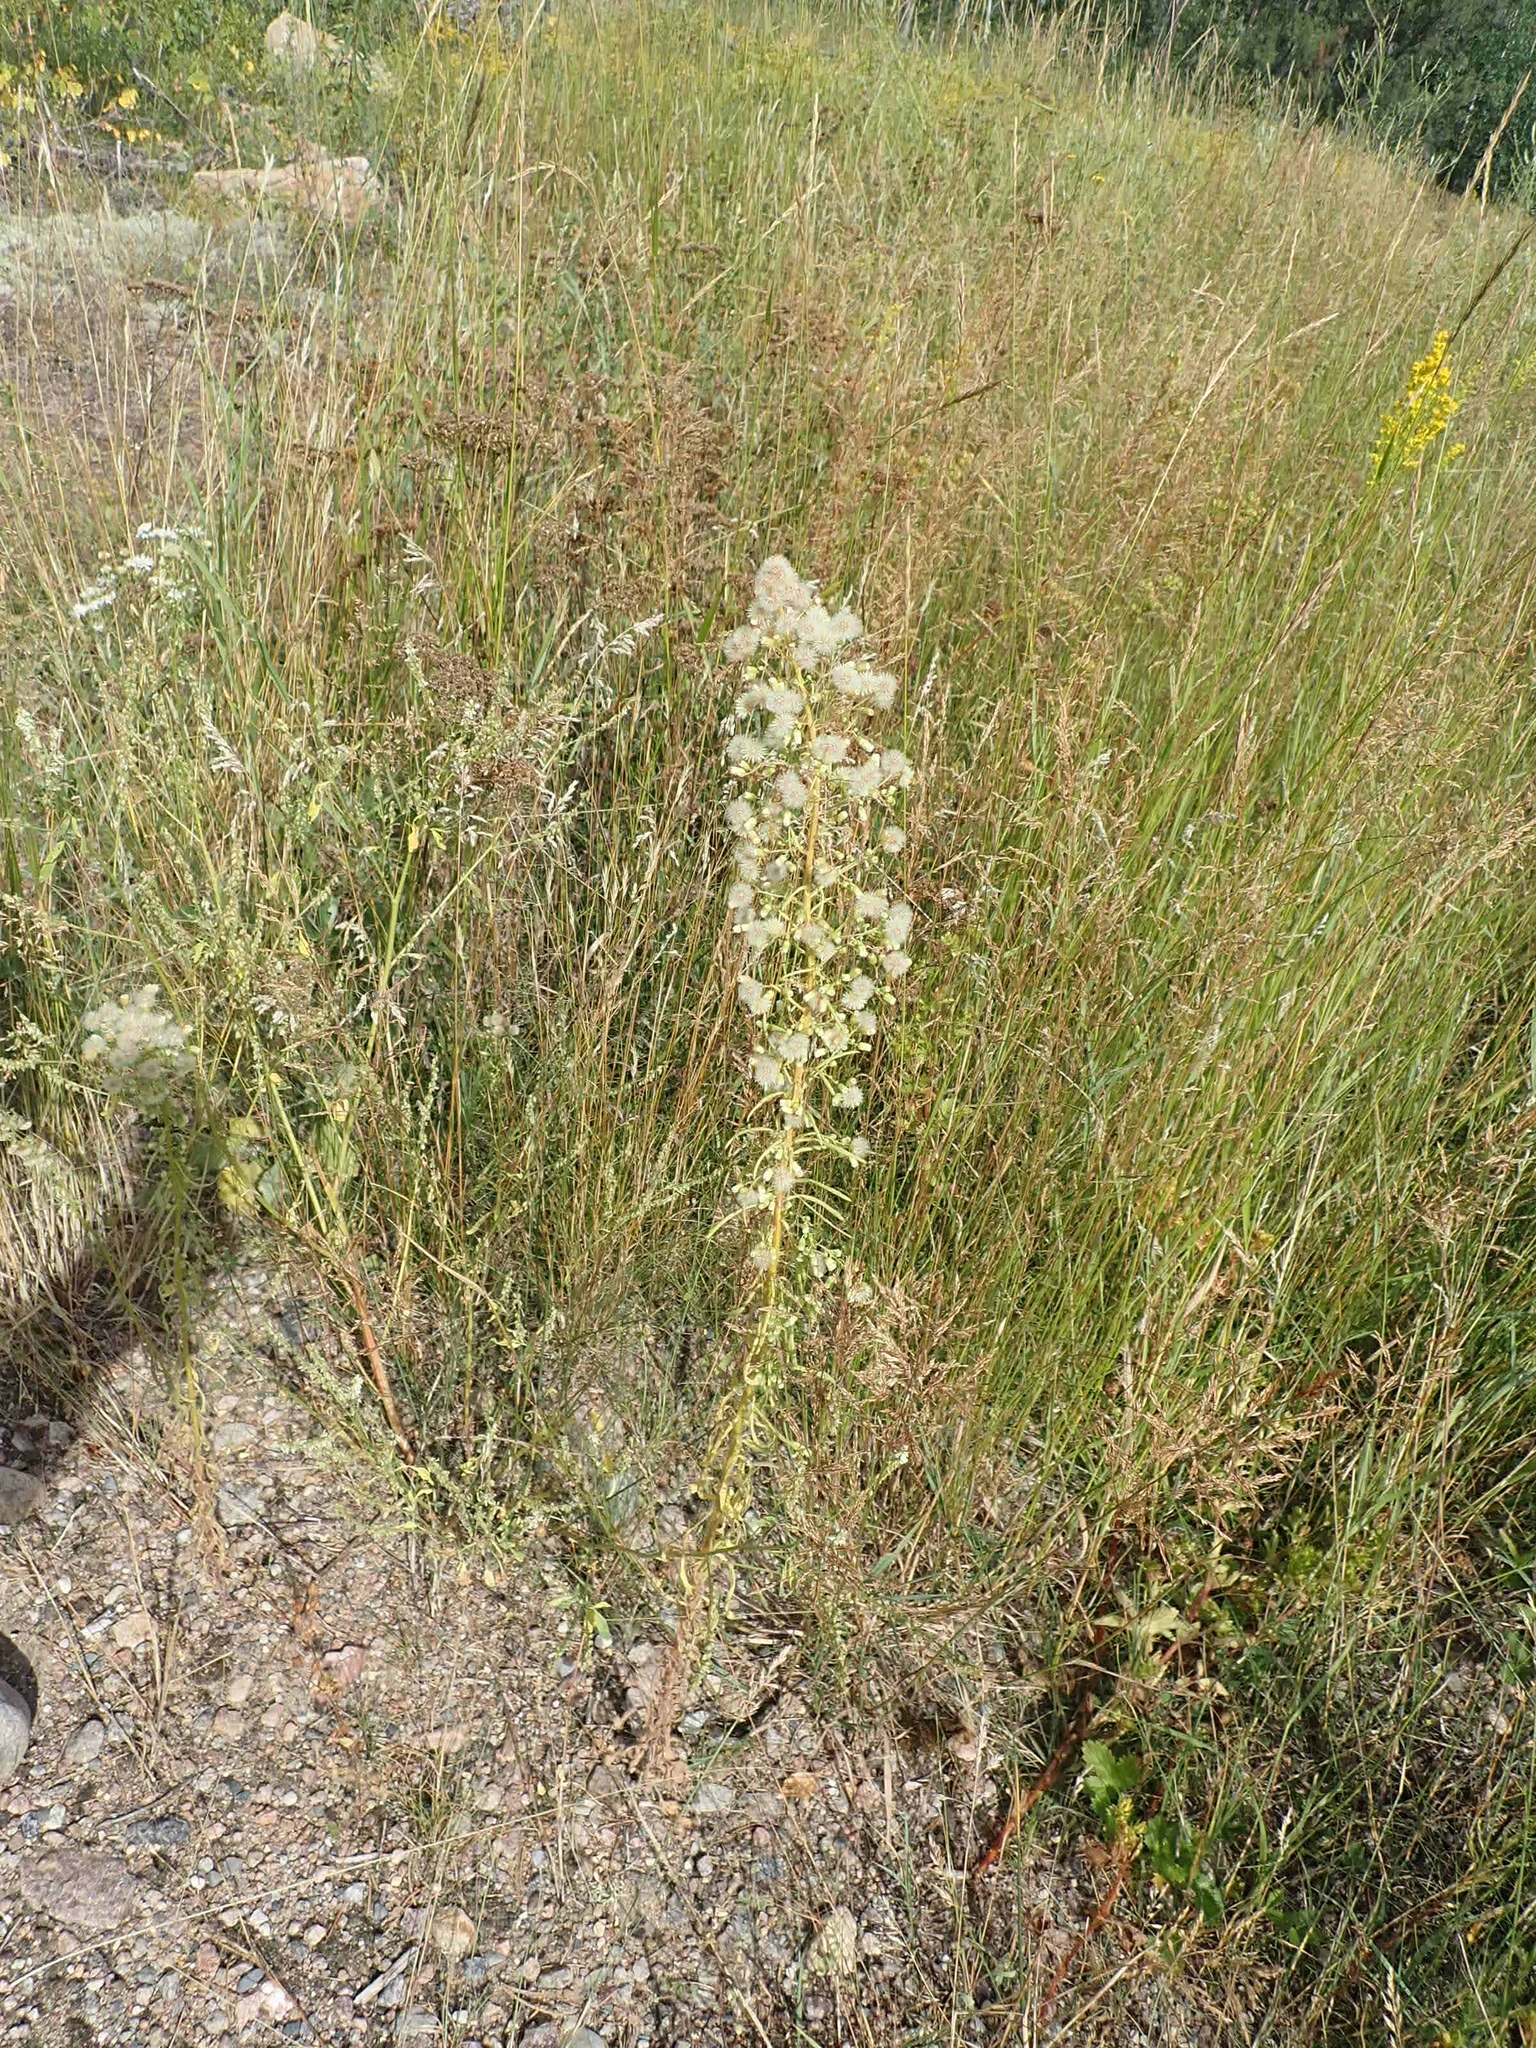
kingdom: Plantae
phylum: Tracheophyta
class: Magnoliopsida
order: Asterales
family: Asteraceae
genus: Erigeron
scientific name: Erigeron canadensis
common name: Canadian fleabane
